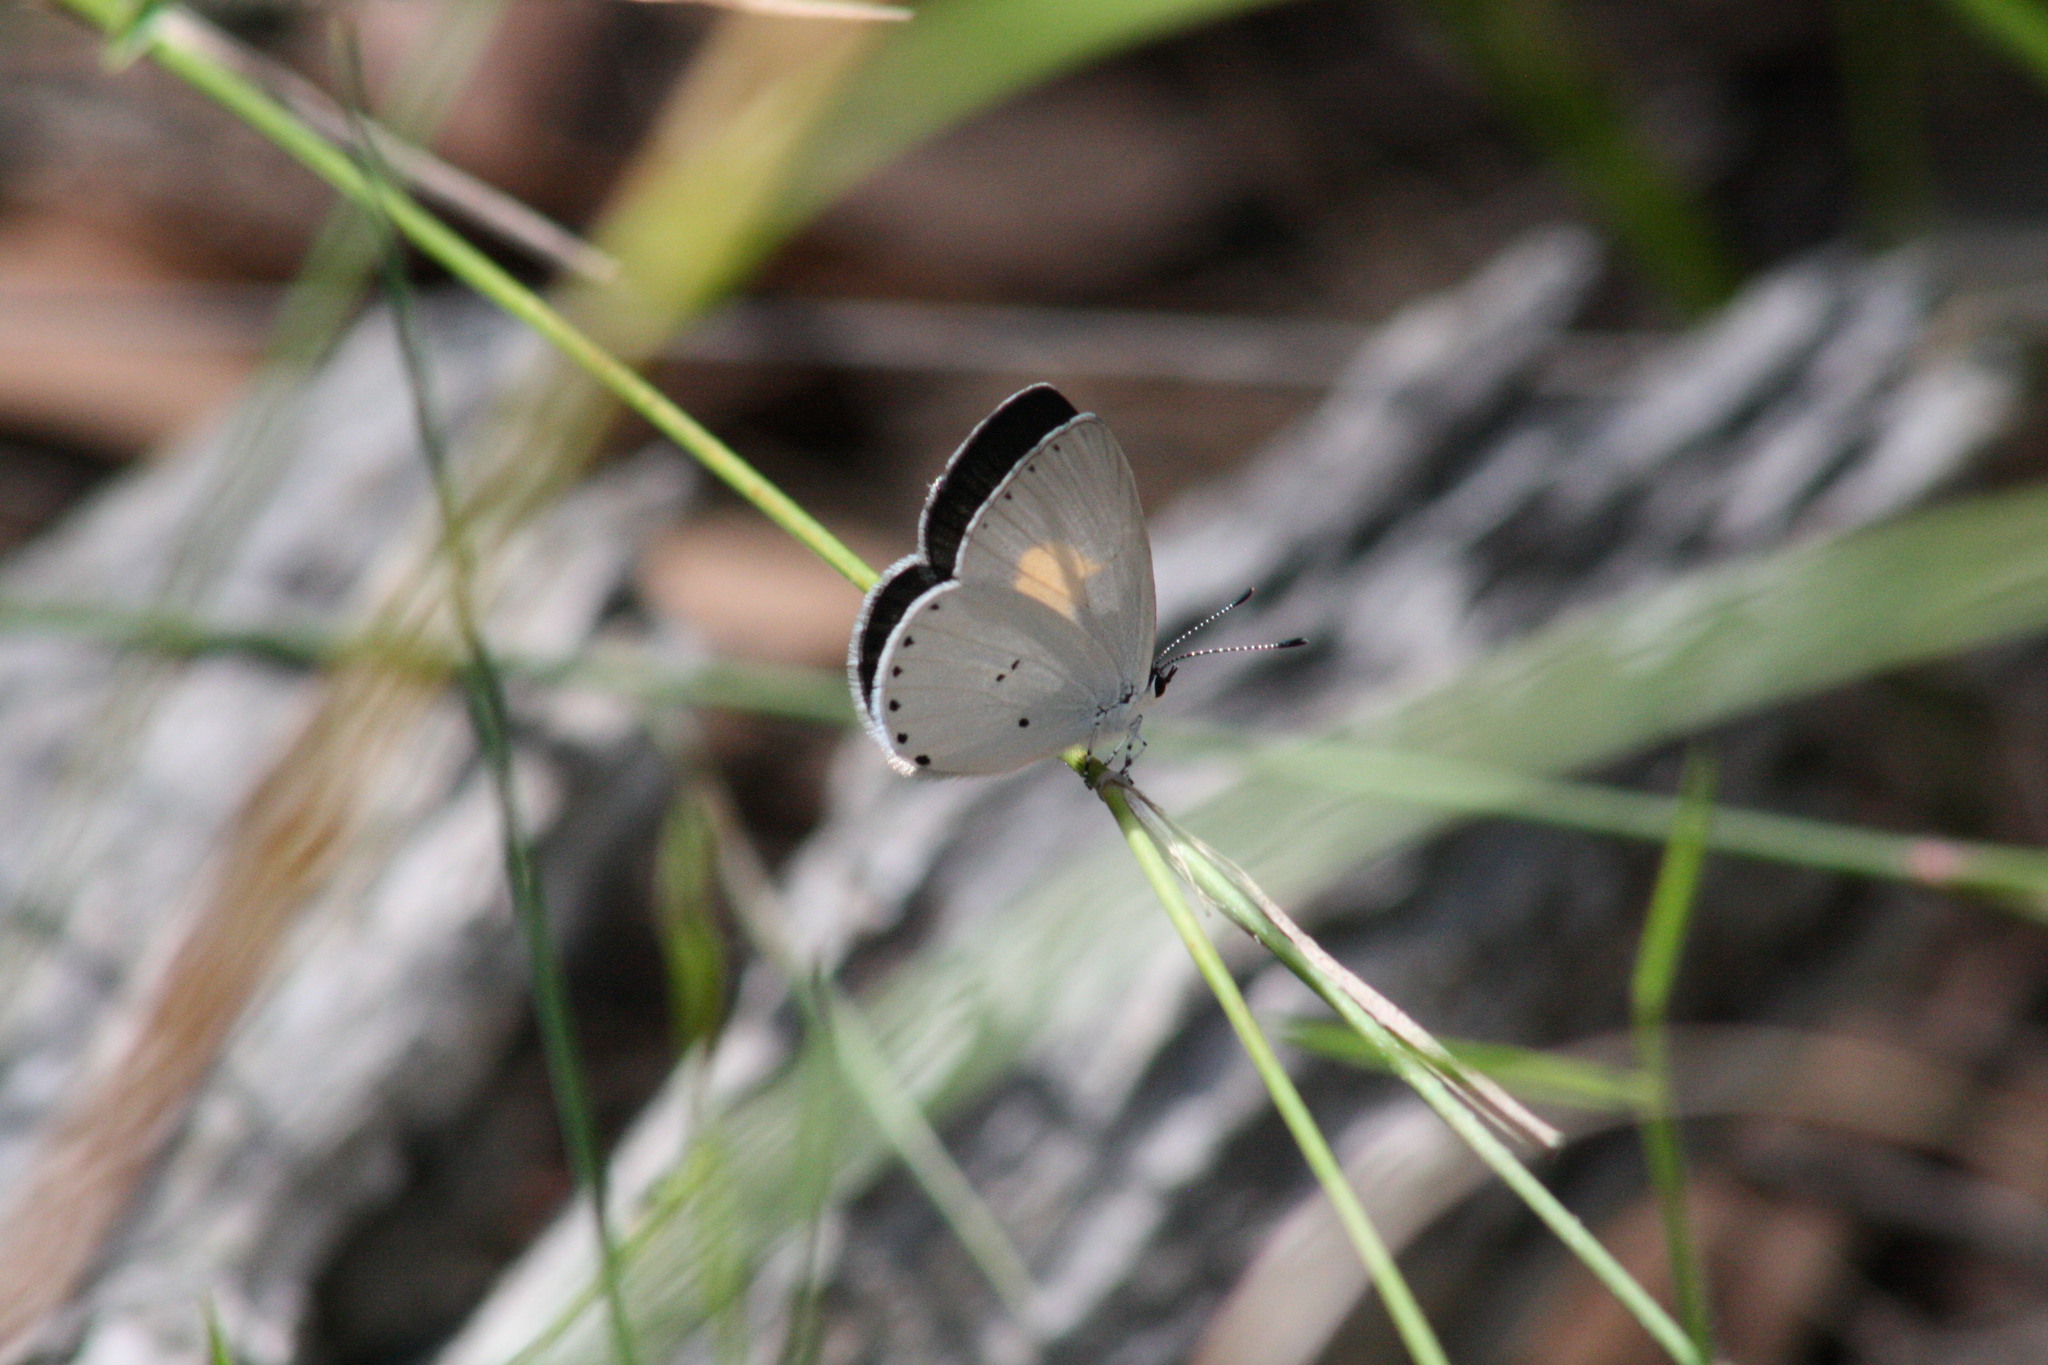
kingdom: Animalia
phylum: Arthropoda
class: Insecta
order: Lepidoptera
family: Lycaenidae
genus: Candalides
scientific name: Candalides xanthospilos
